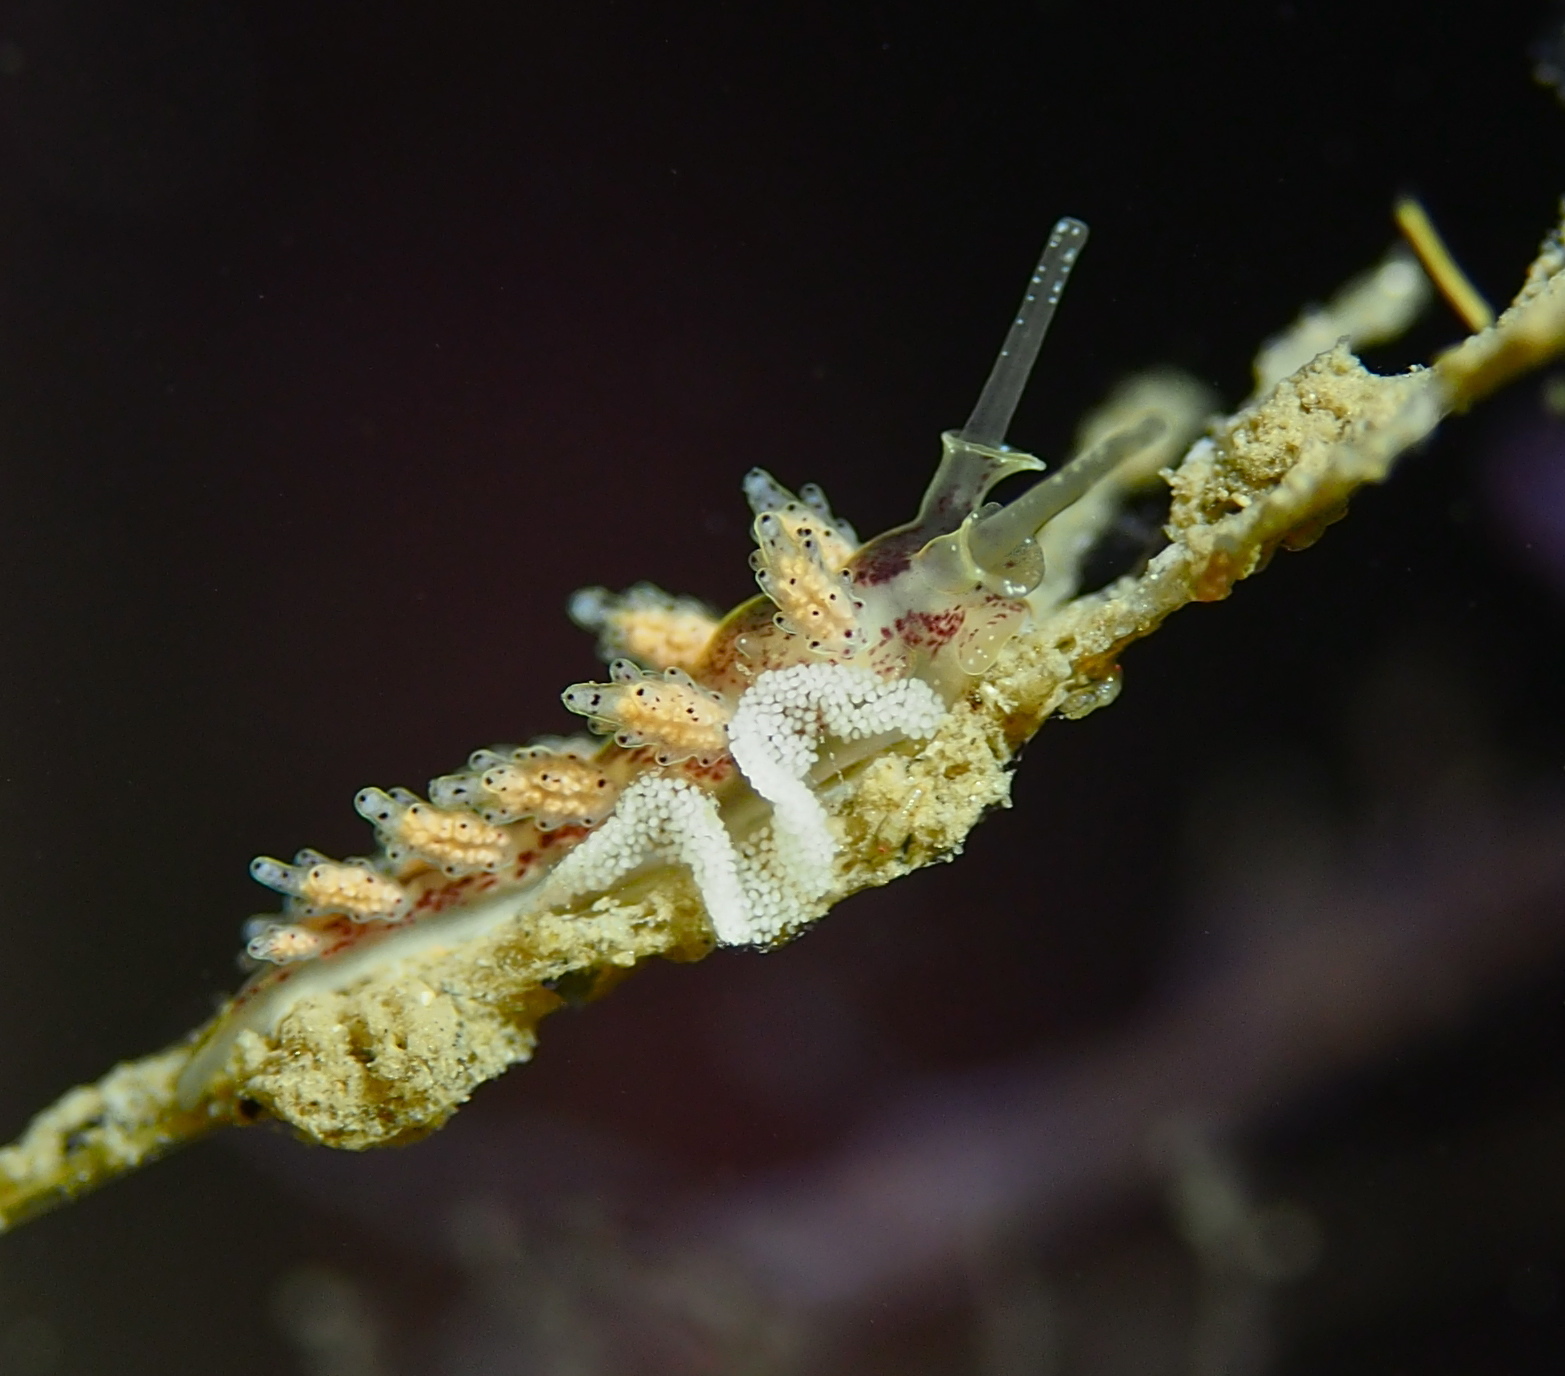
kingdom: Animalia
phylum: Mollusca
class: Gastropoda
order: Nudibranchia
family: Dotidae
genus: Doto
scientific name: Doto dunnei
